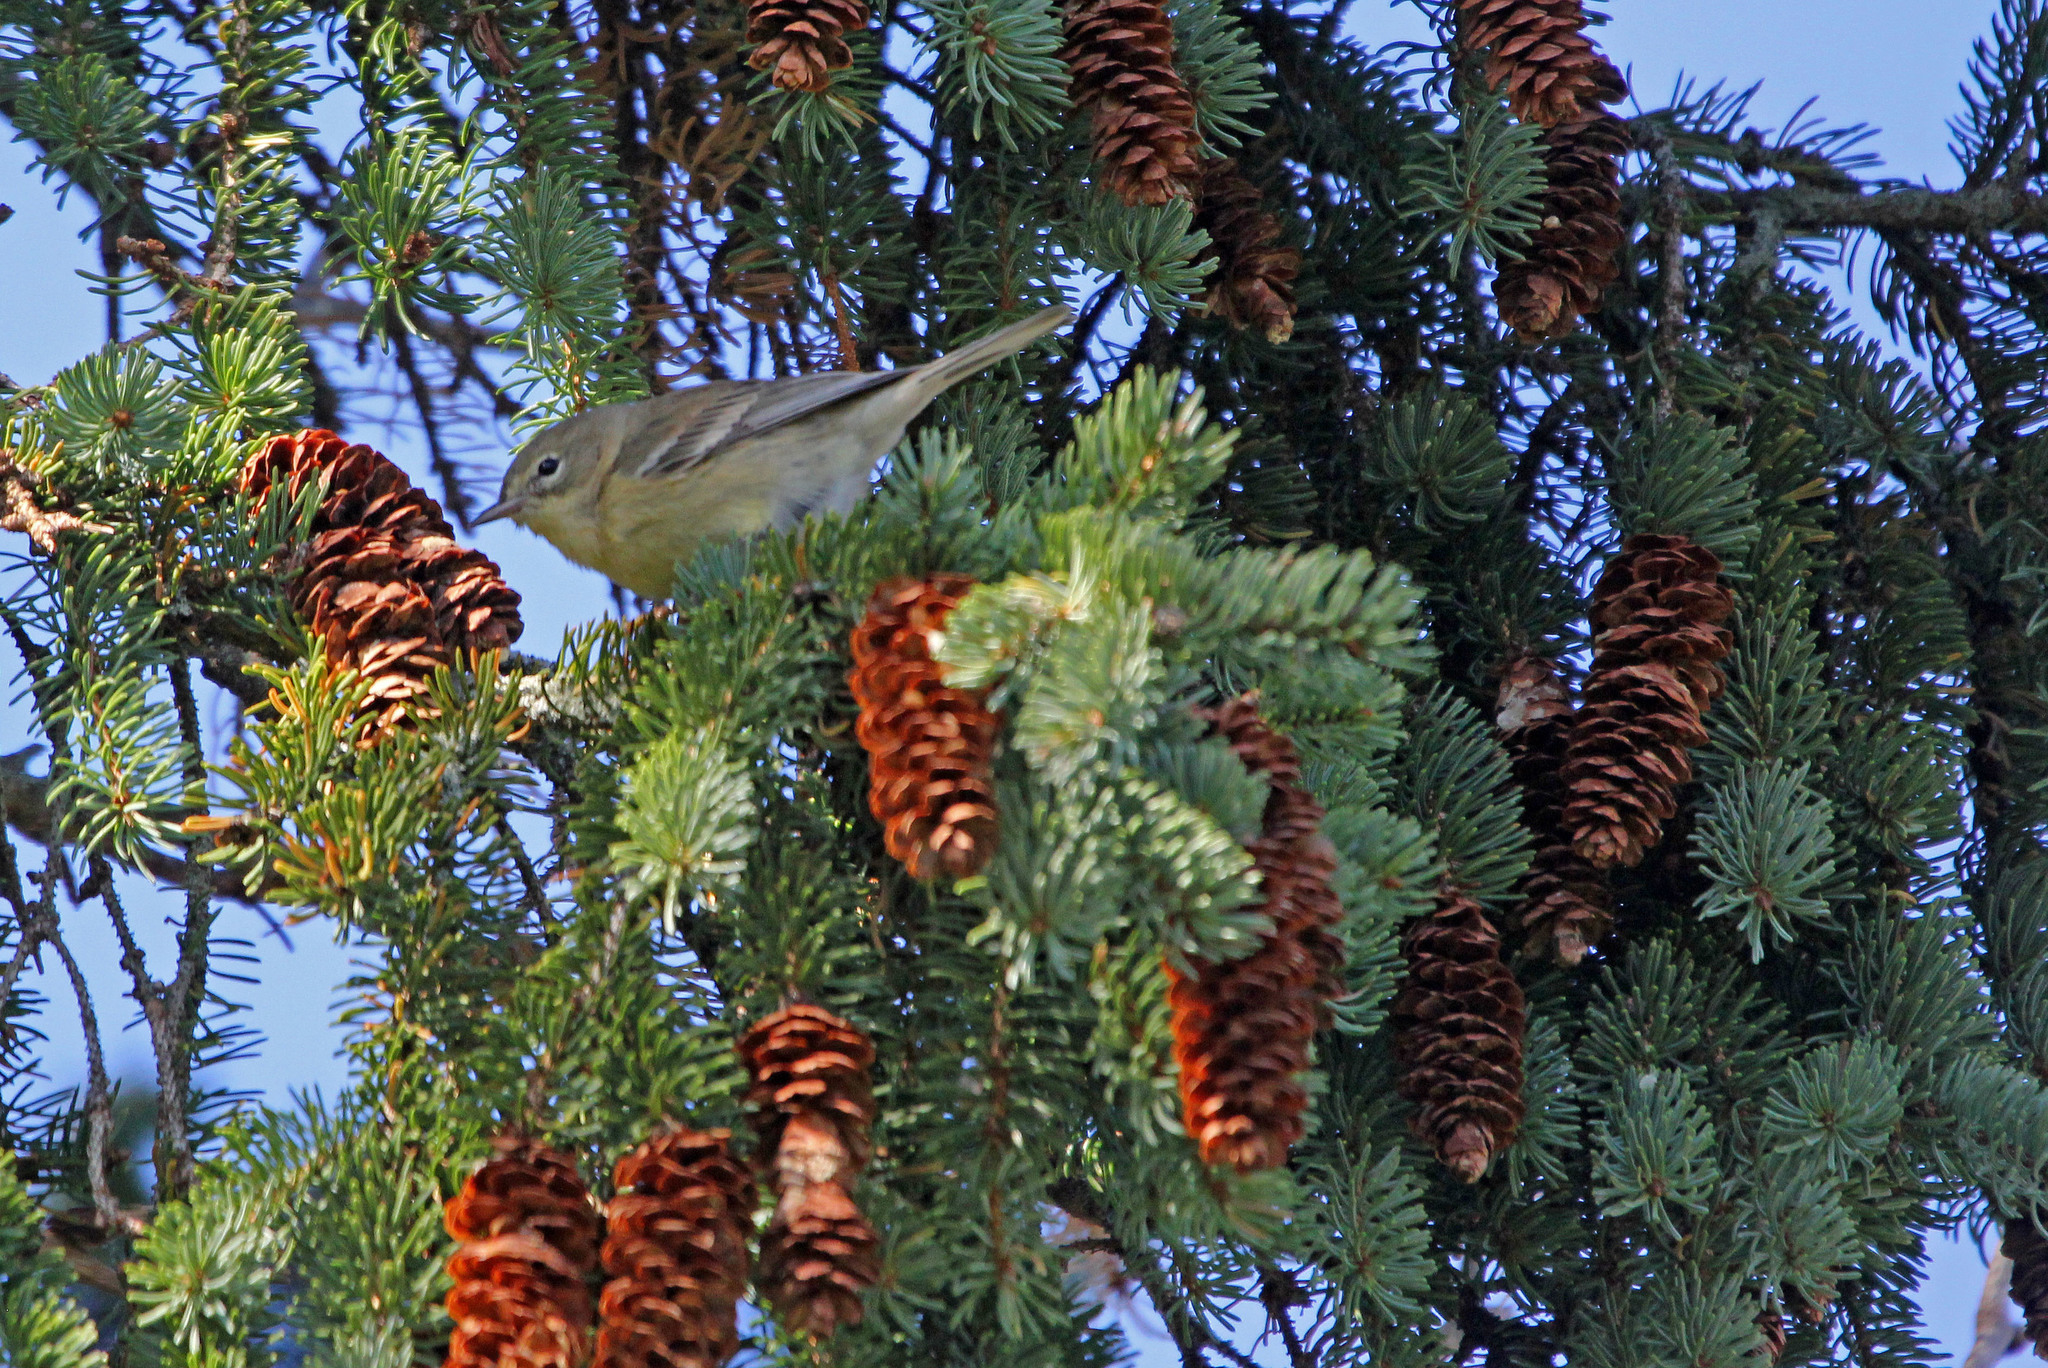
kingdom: Animalia
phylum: Chordata
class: Aves
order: Passeriformes
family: Parulidae
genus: Setophaga
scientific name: Setophaga pinus
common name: Pine warbler
